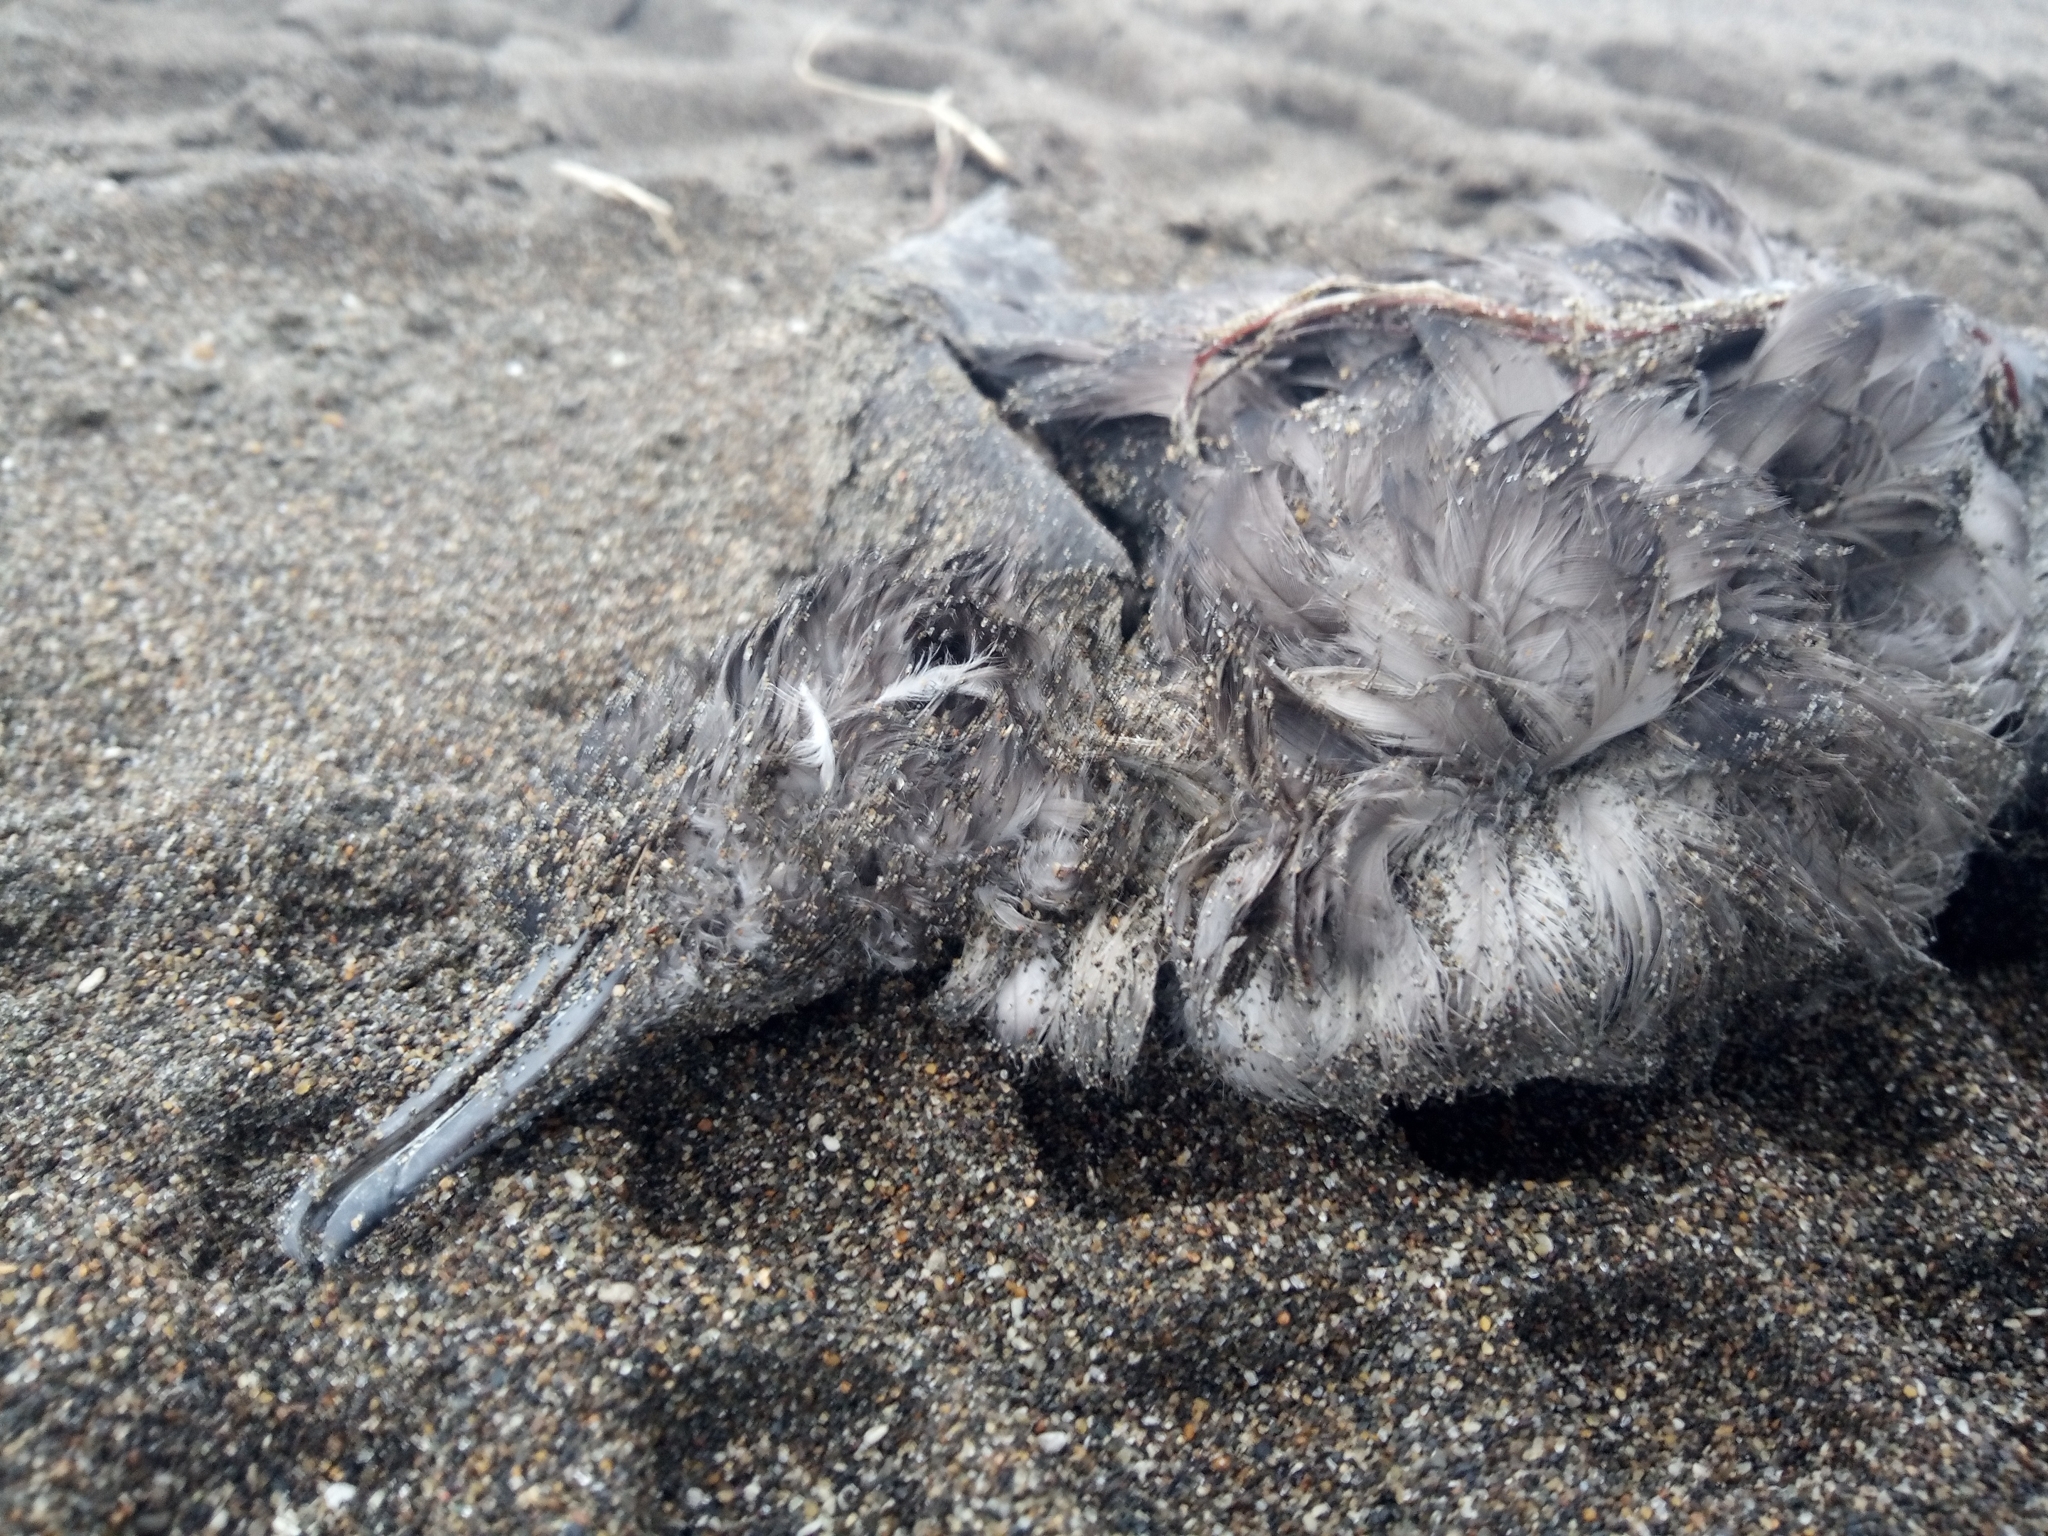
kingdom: Animalia
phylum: Chordata
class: Aves
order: Procellariiformes
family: Procellariidae
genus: Puffinus
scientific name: Puffinus tenuirostris
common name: Short-tailed shearwater
